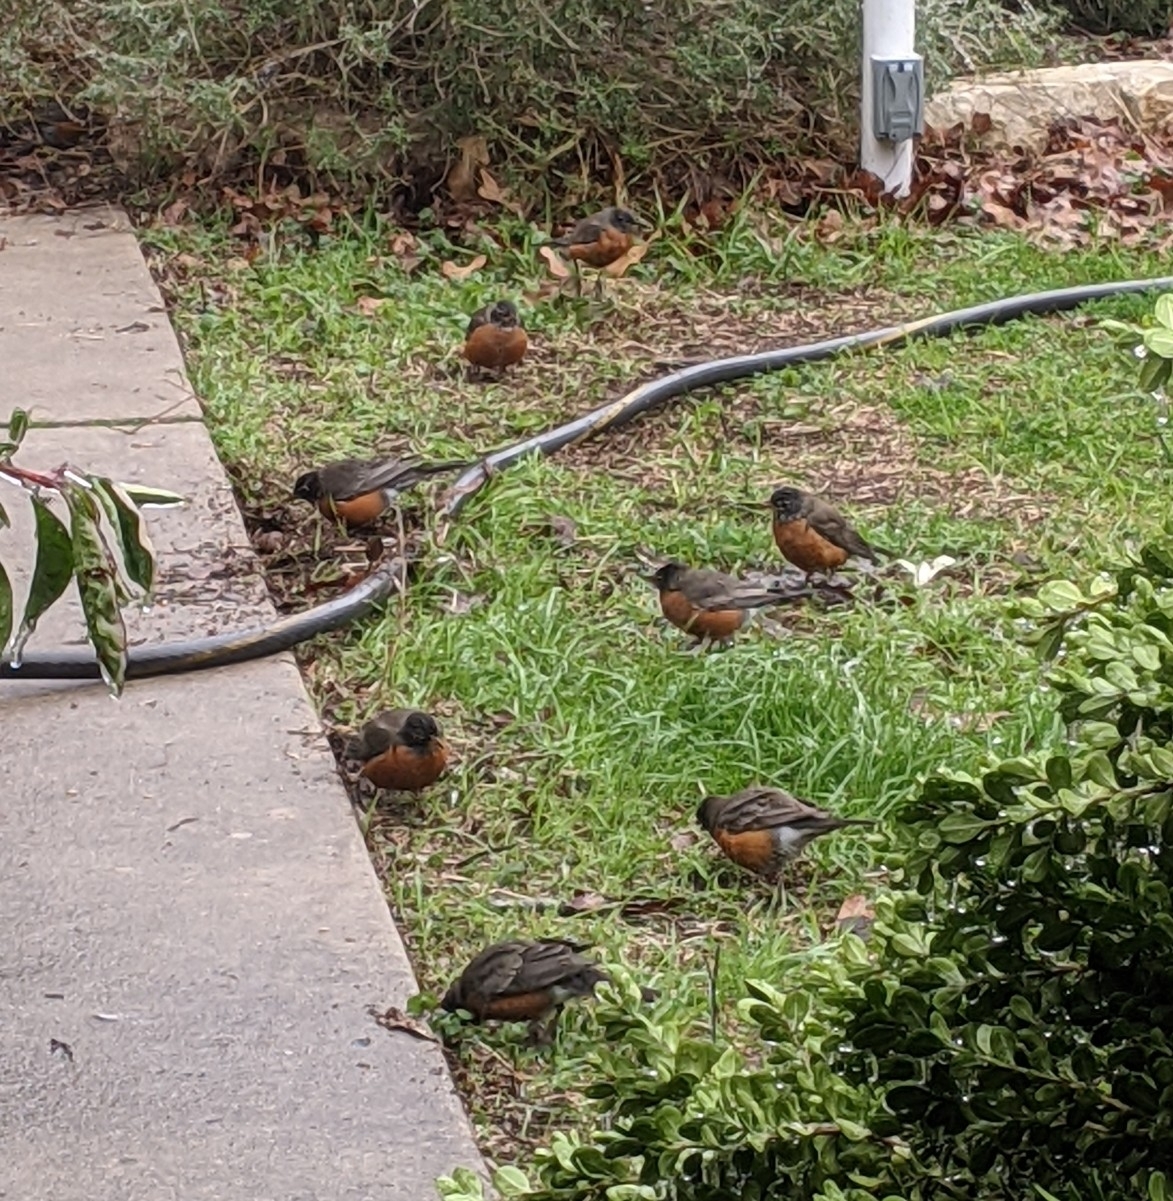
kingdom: Animalia
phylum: Chordata
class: Aves
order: Passeriformes
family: Turdidae
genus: Turdus
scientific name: Turdus migratorius
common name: American robin
